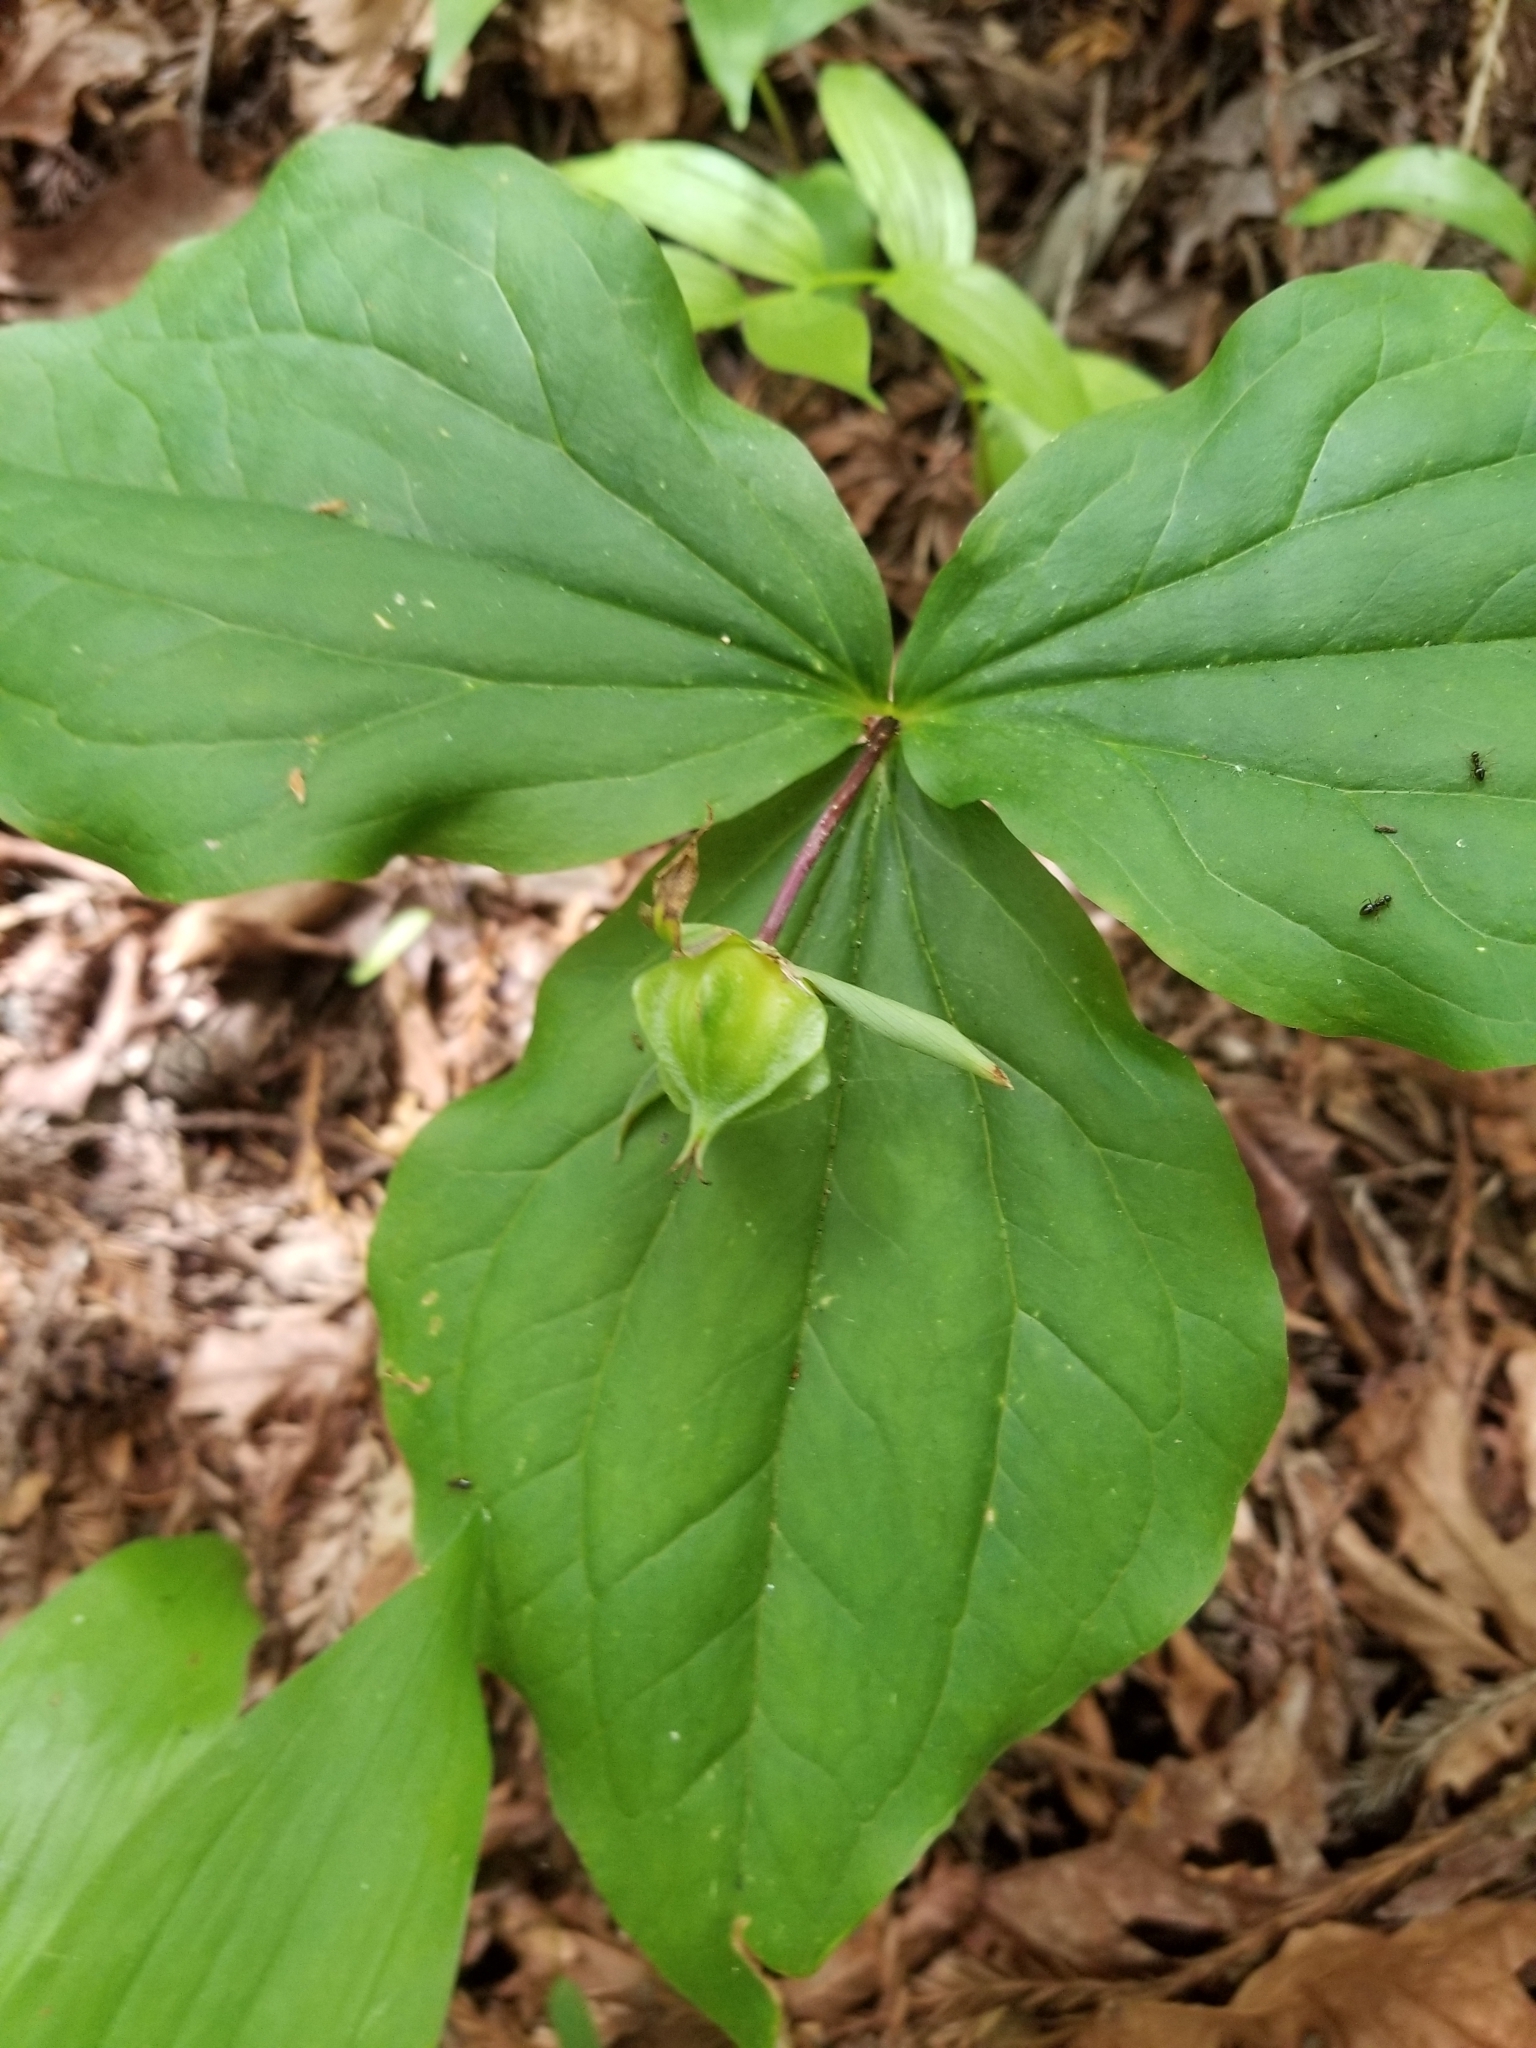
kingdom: Plantae
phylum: Tracheophyta
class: Liliopsida
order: Liliales
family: Melanthiaceae
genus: Trillium
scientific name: Trillium ovatum
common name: Pacific trillium
